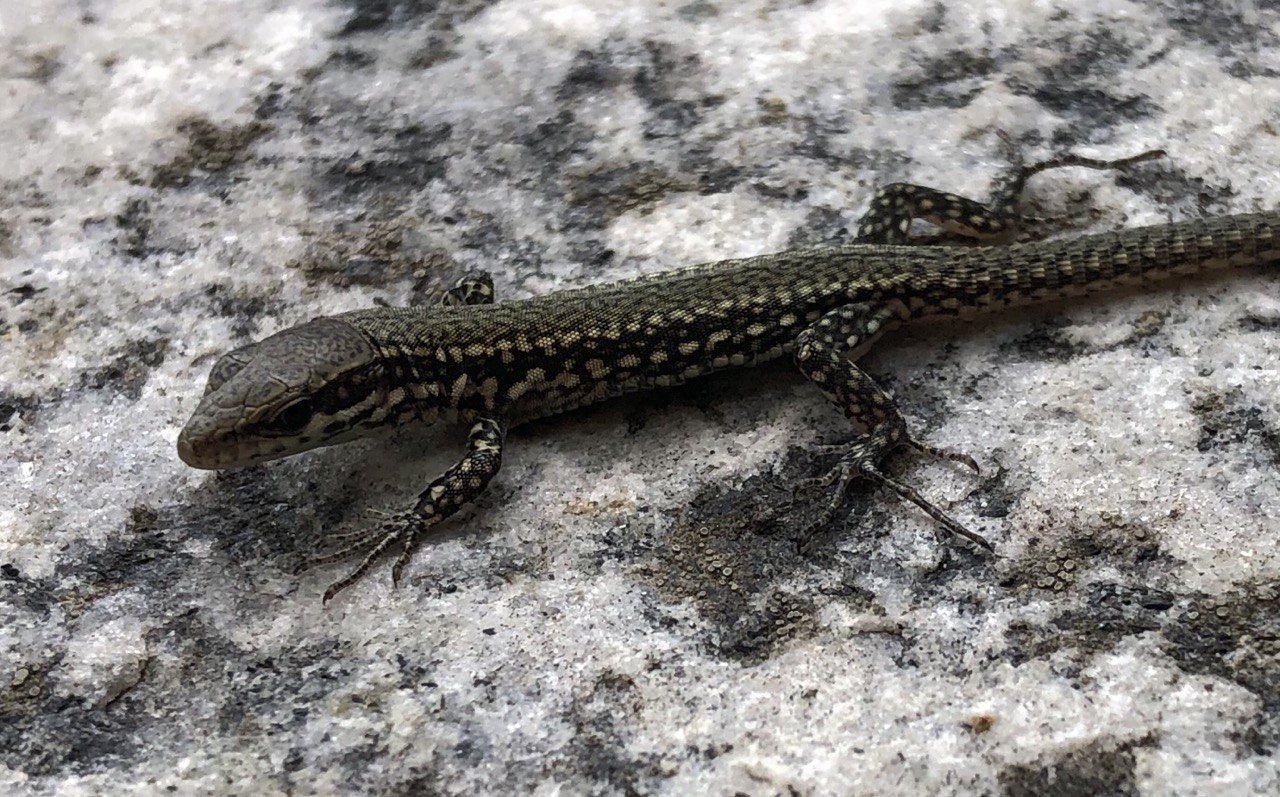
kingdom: Animalia
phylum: Chordata
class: Squamata
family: Lacertidae
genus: Podarcis
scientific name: Podarcis muralis
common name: Common wall lizard
